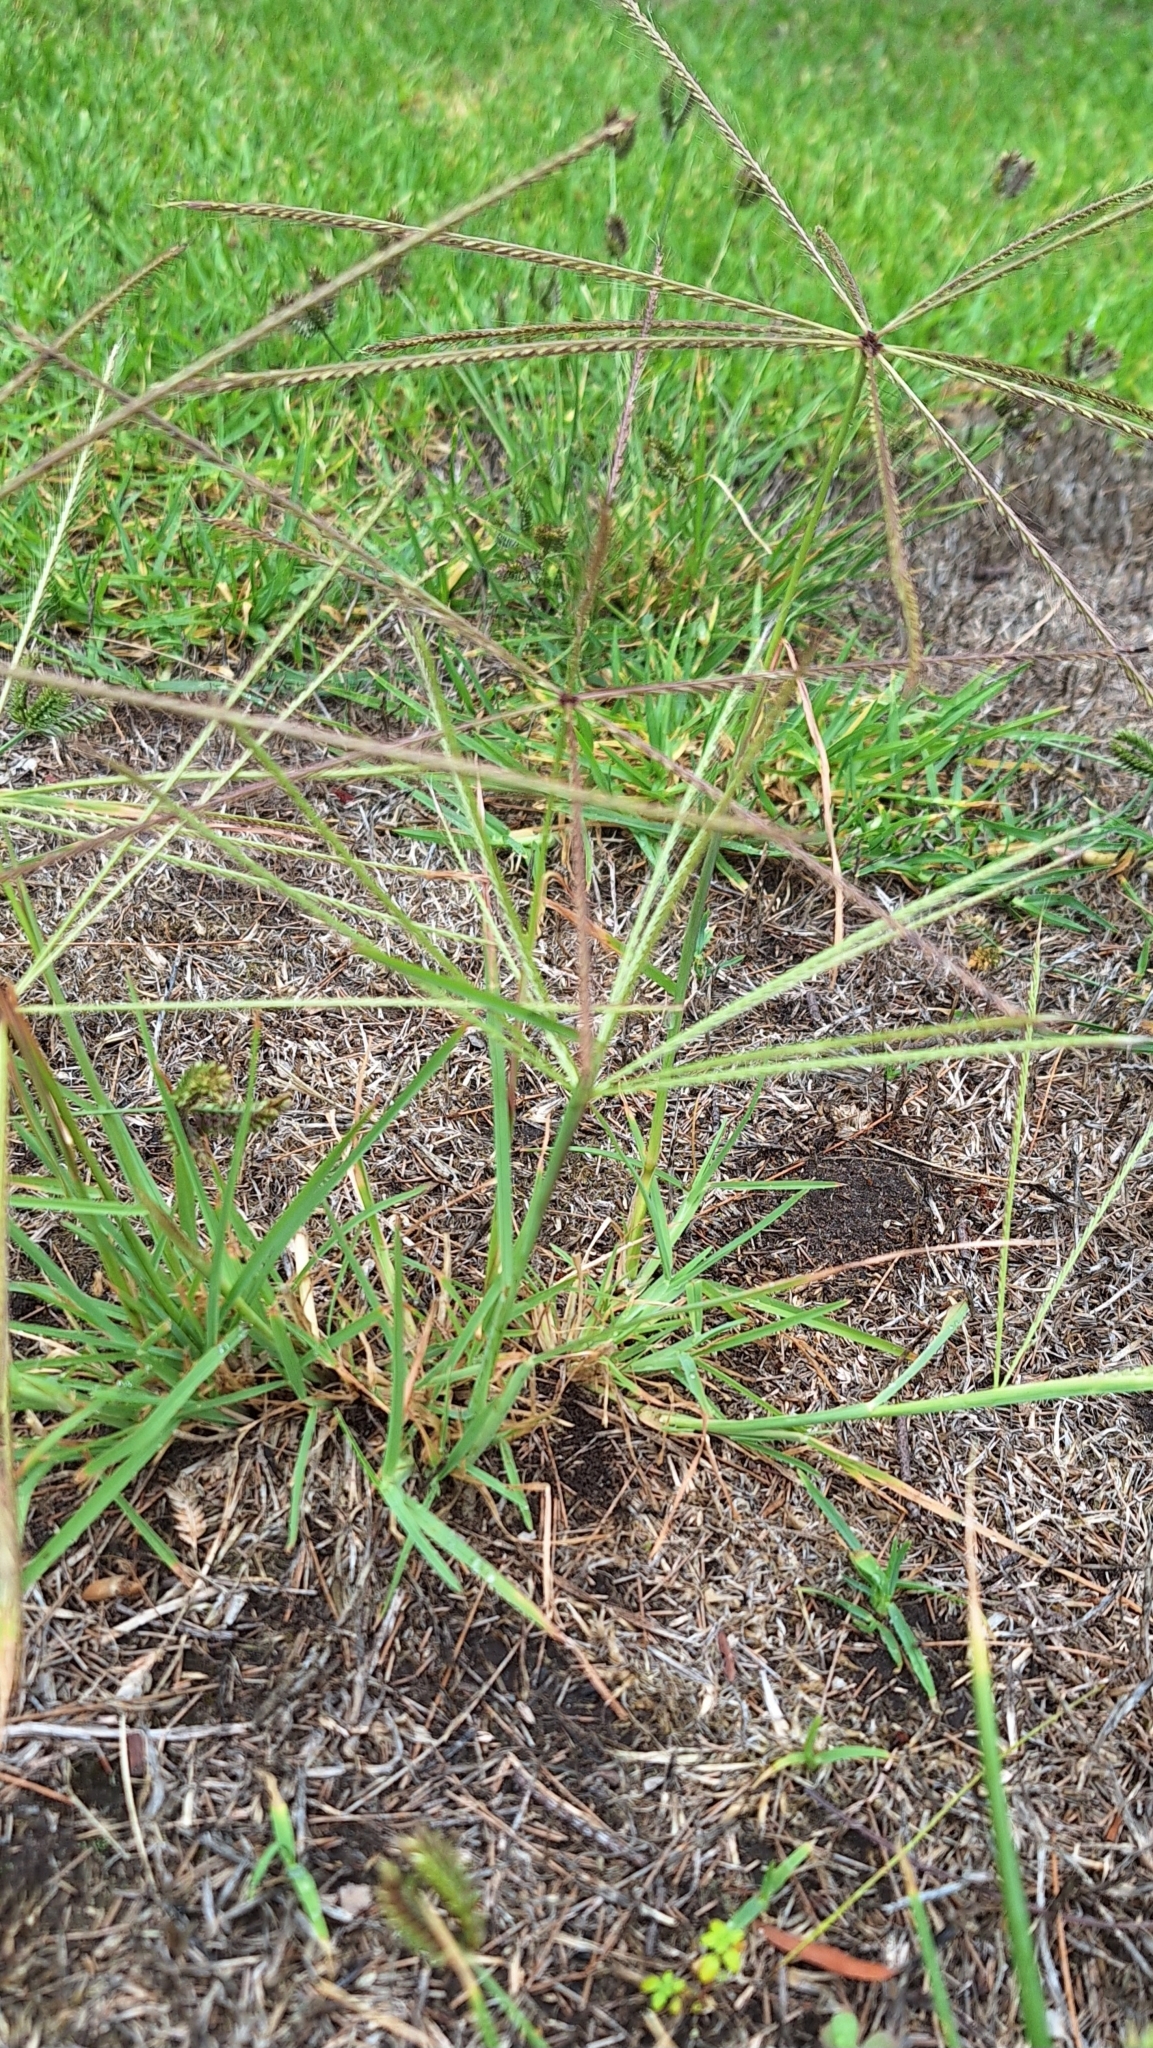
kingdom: Plantae
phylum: Tracheophyta
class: Liliopsida
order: Poales
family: Poaceae
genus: Chloris
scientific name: Chloris truncata
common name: Windmill-grass
